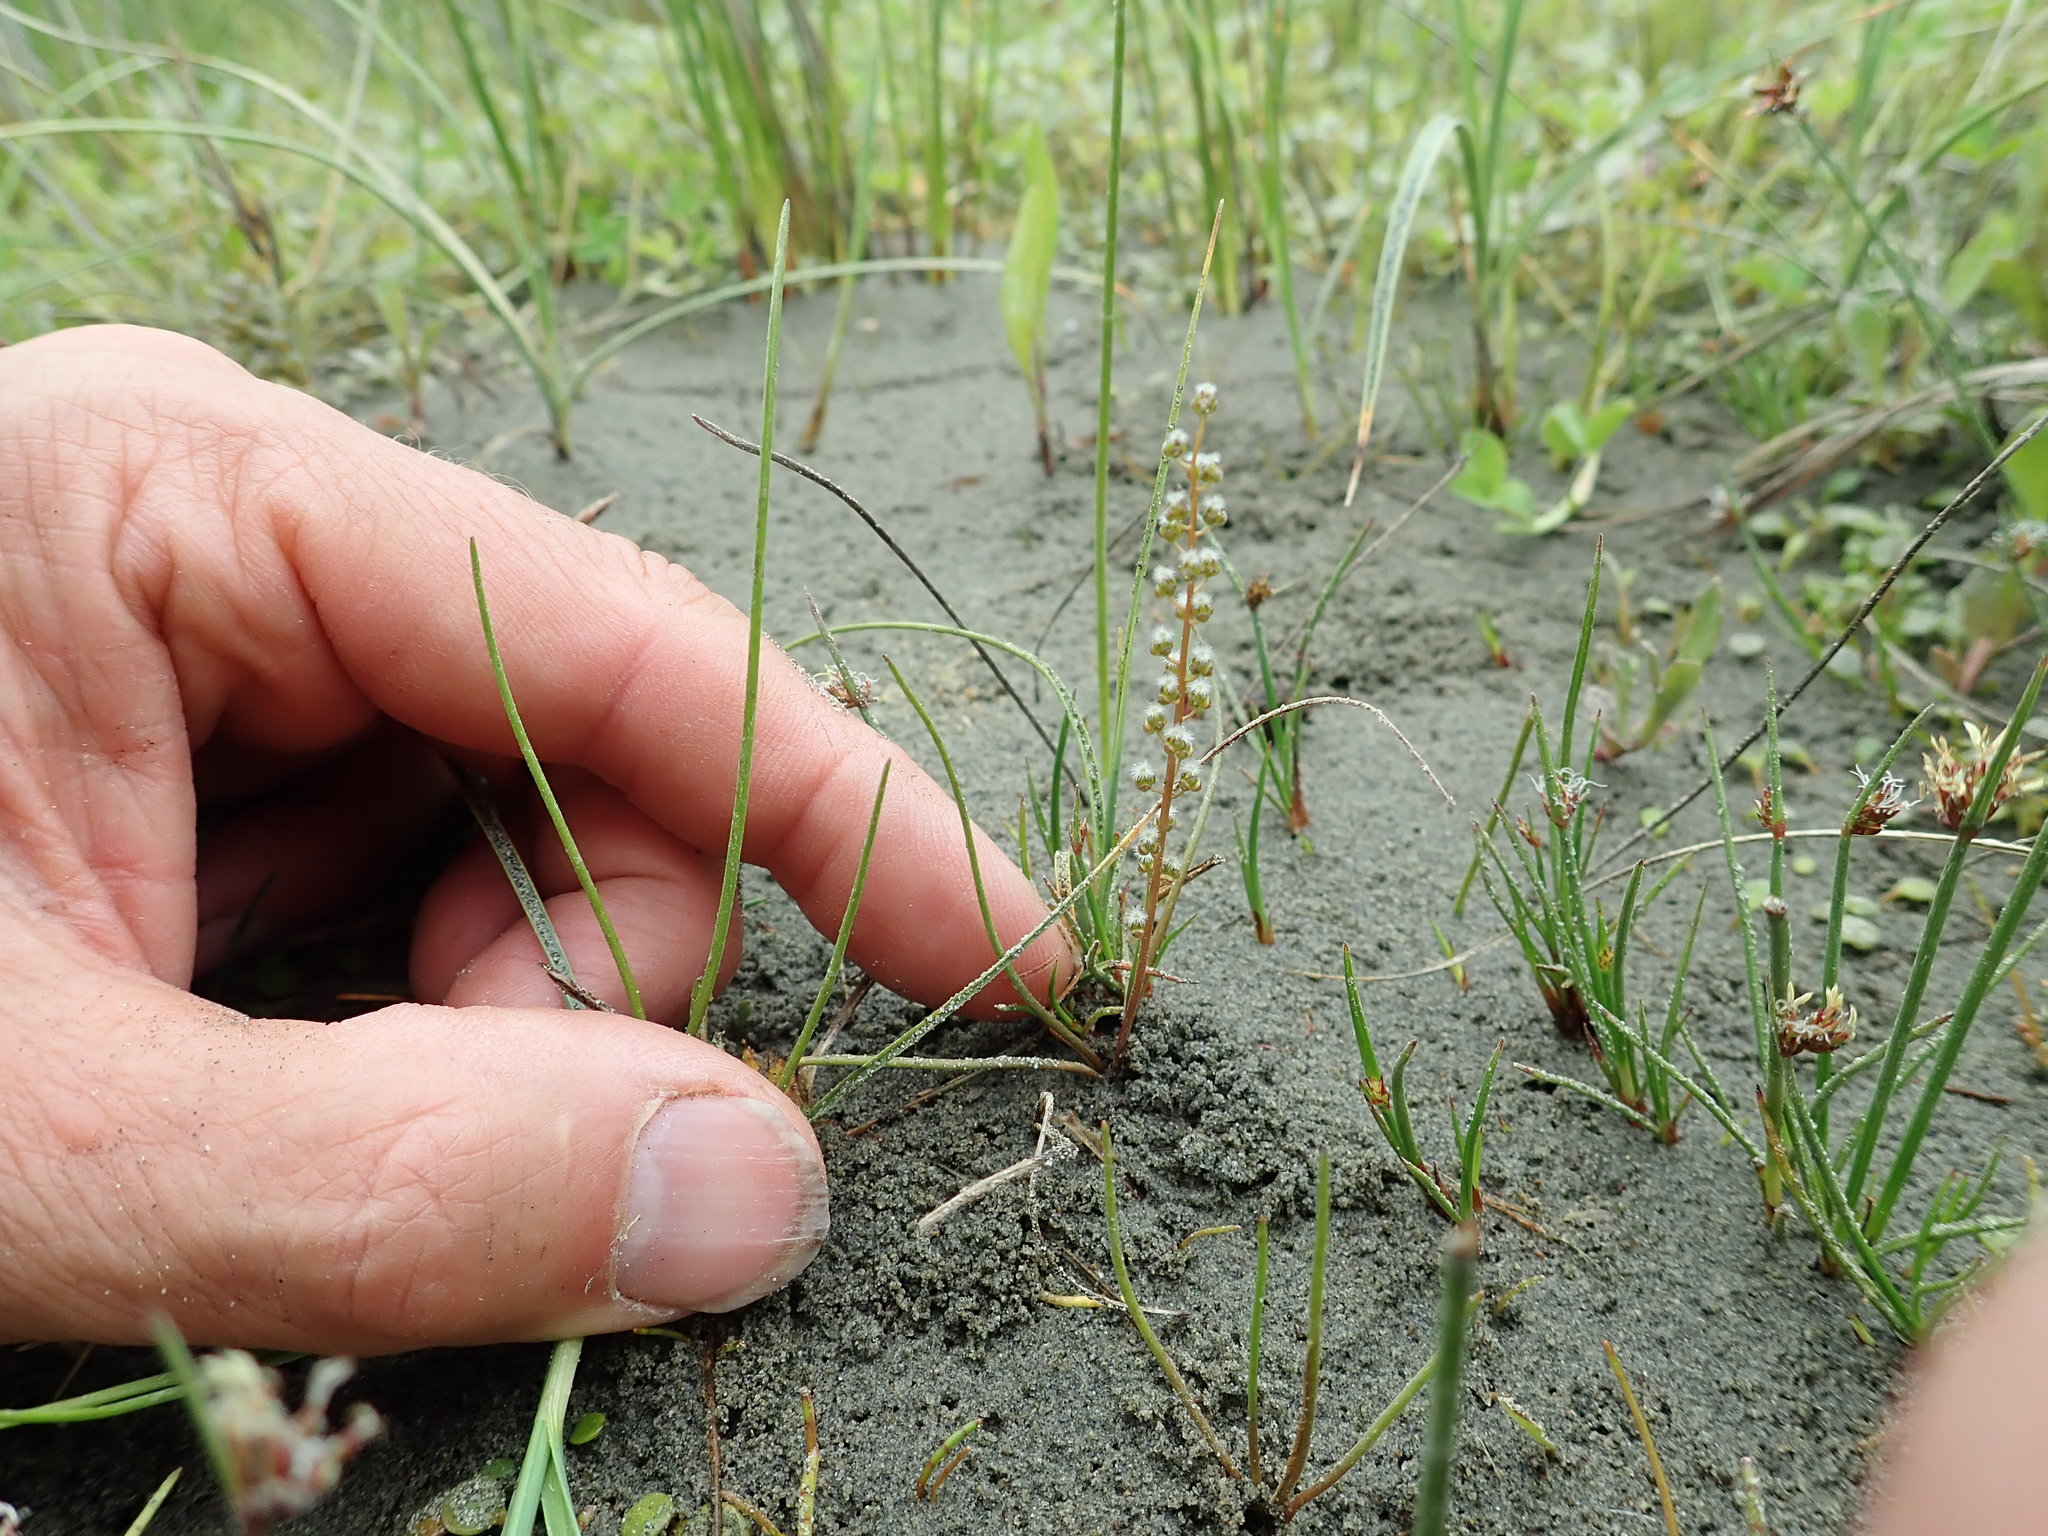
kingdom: Plantae
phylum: Tracheophyta
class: Liliopsida
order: Alismatales
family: Juncaginaceae
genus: Triglochin
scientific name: Triglochin striata
